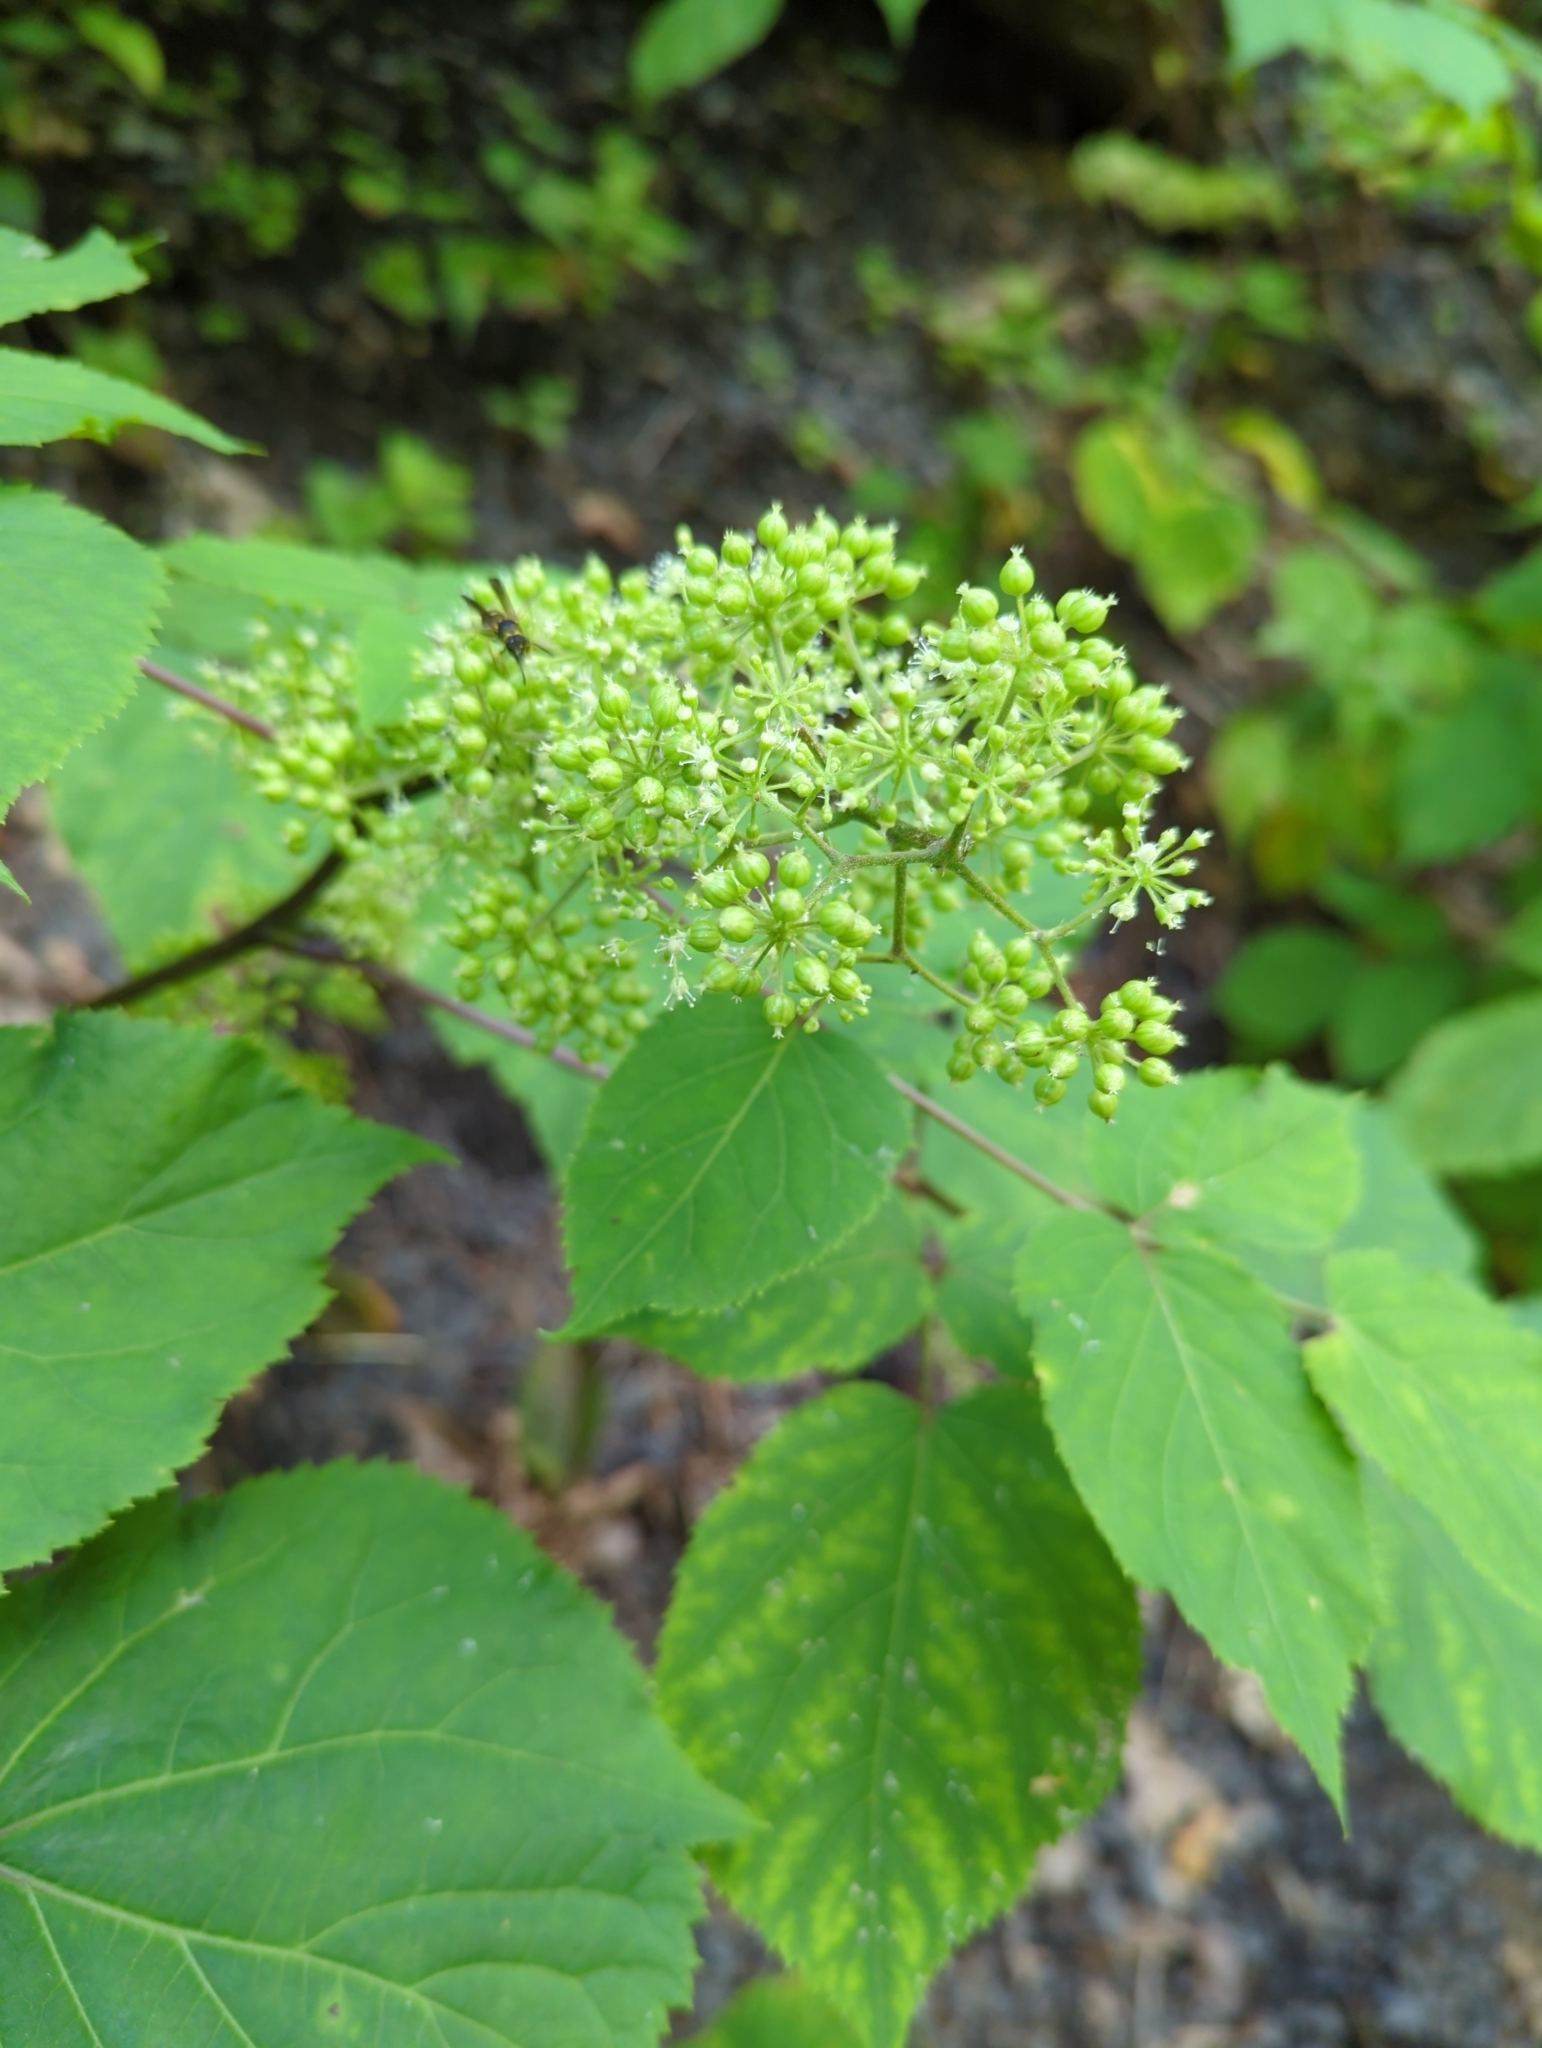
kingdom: Plantae
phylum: Tracheophyta
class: Magnoliopsida
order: Apiales
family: Araliaceae
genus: Aralia
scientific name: Aralia racemosa
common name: American-spikenard
